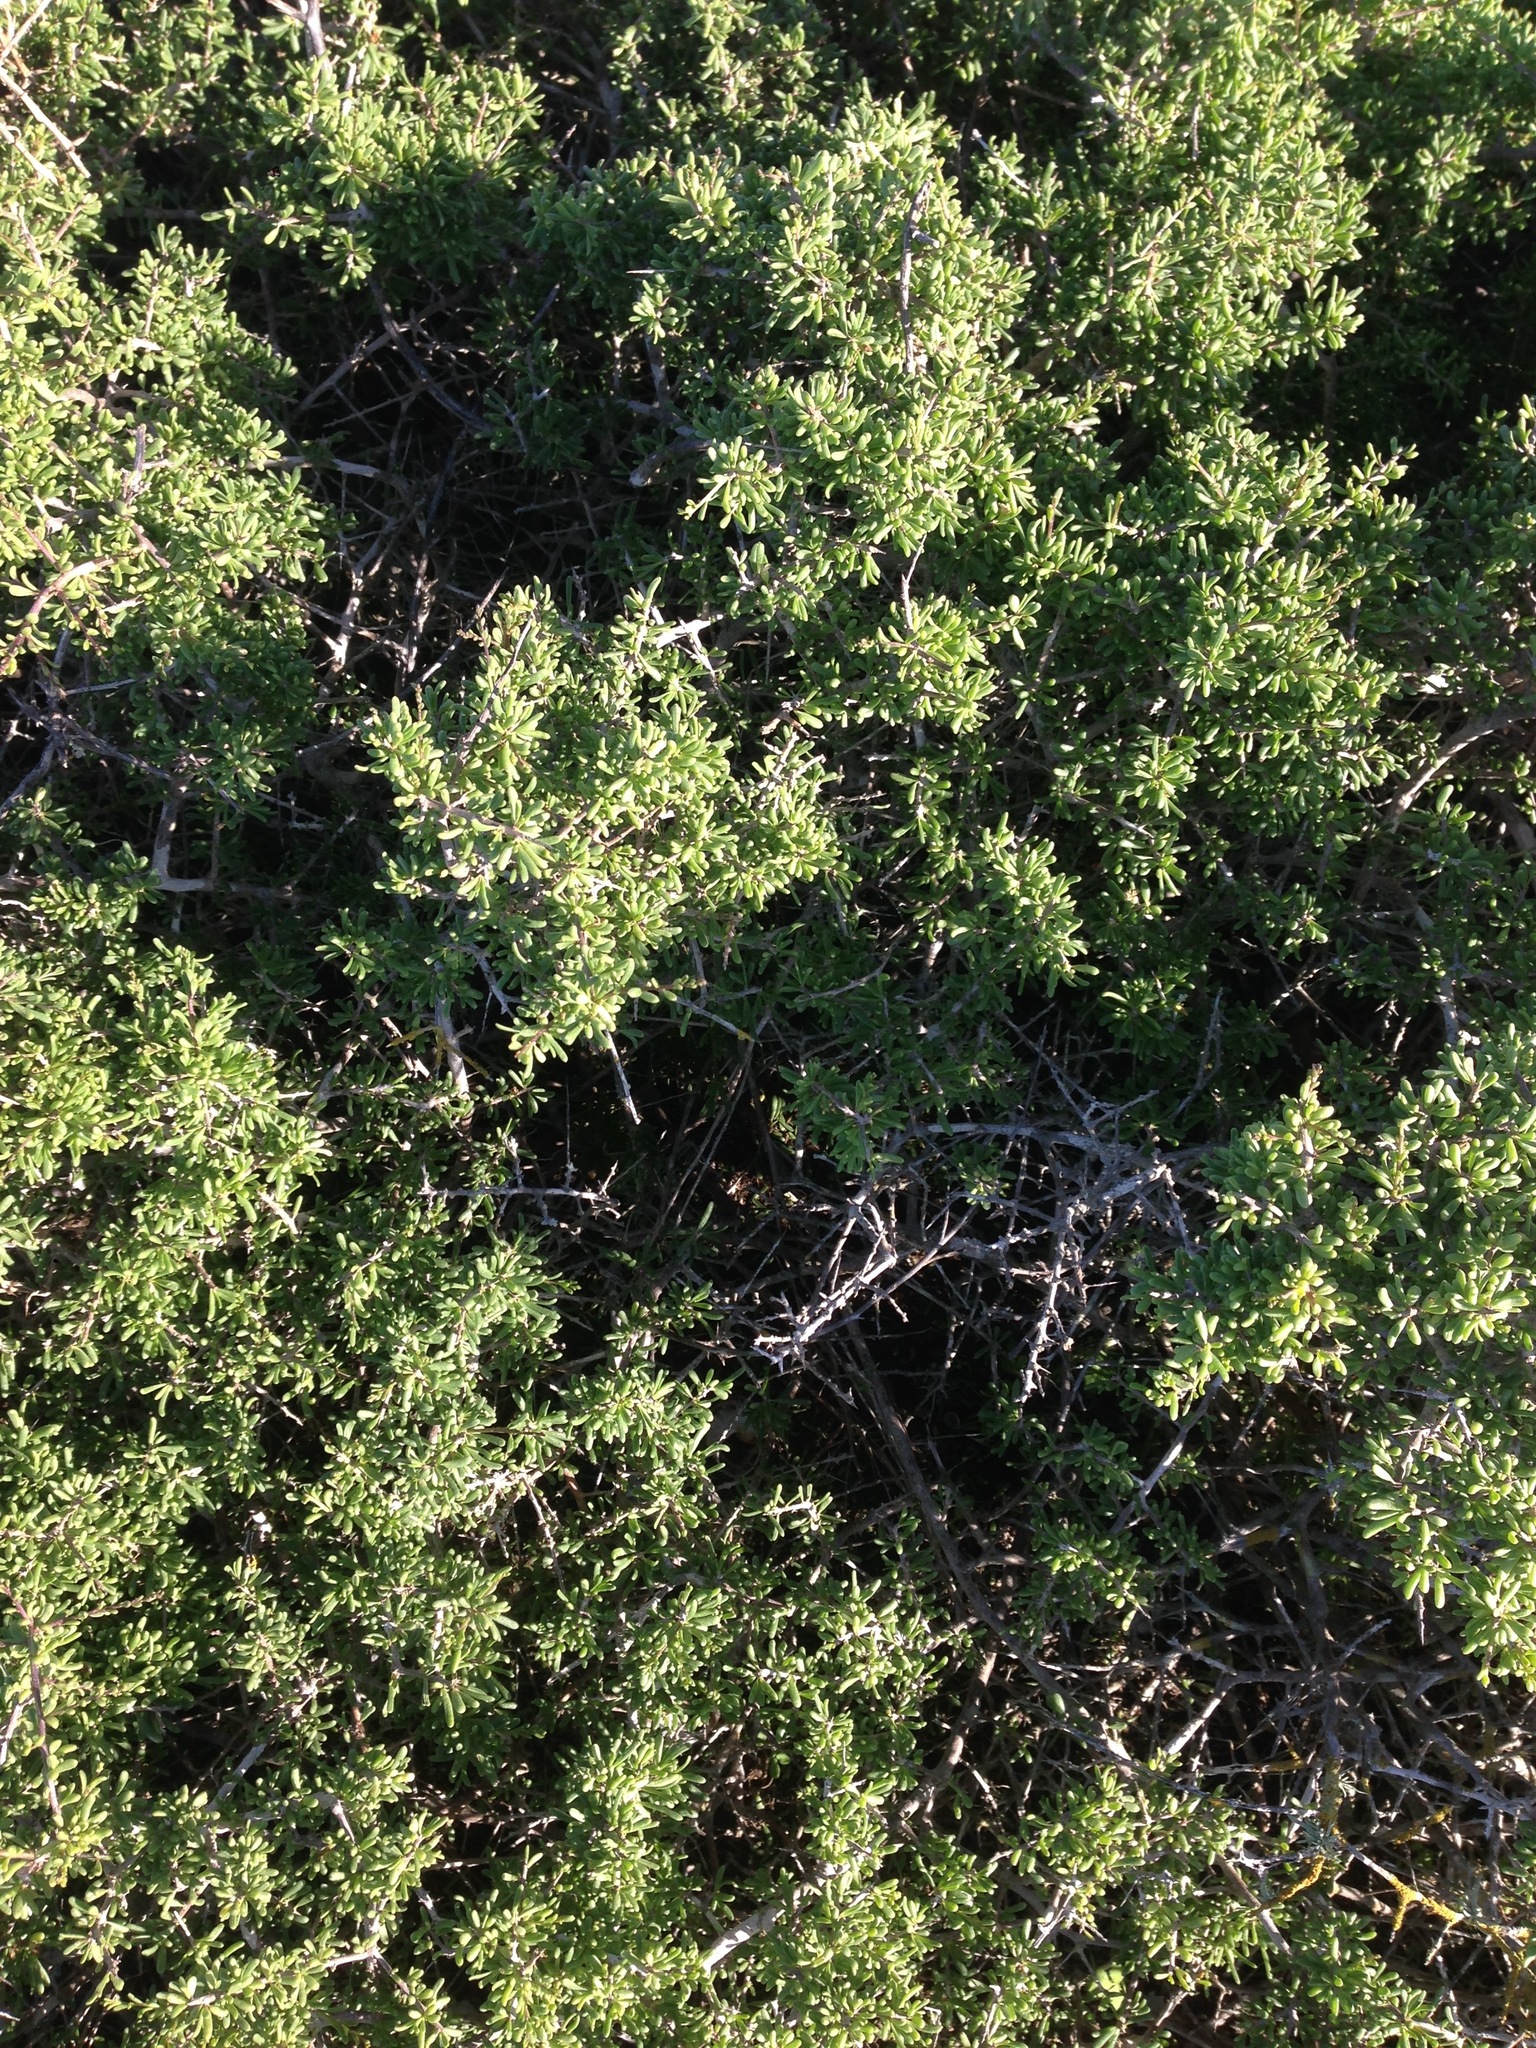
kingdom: Plantae
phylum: Tracheophyta
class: Magnoliopsida
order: Solanales
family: Solanaceae
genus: Lycium
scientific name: Lycium californicum
